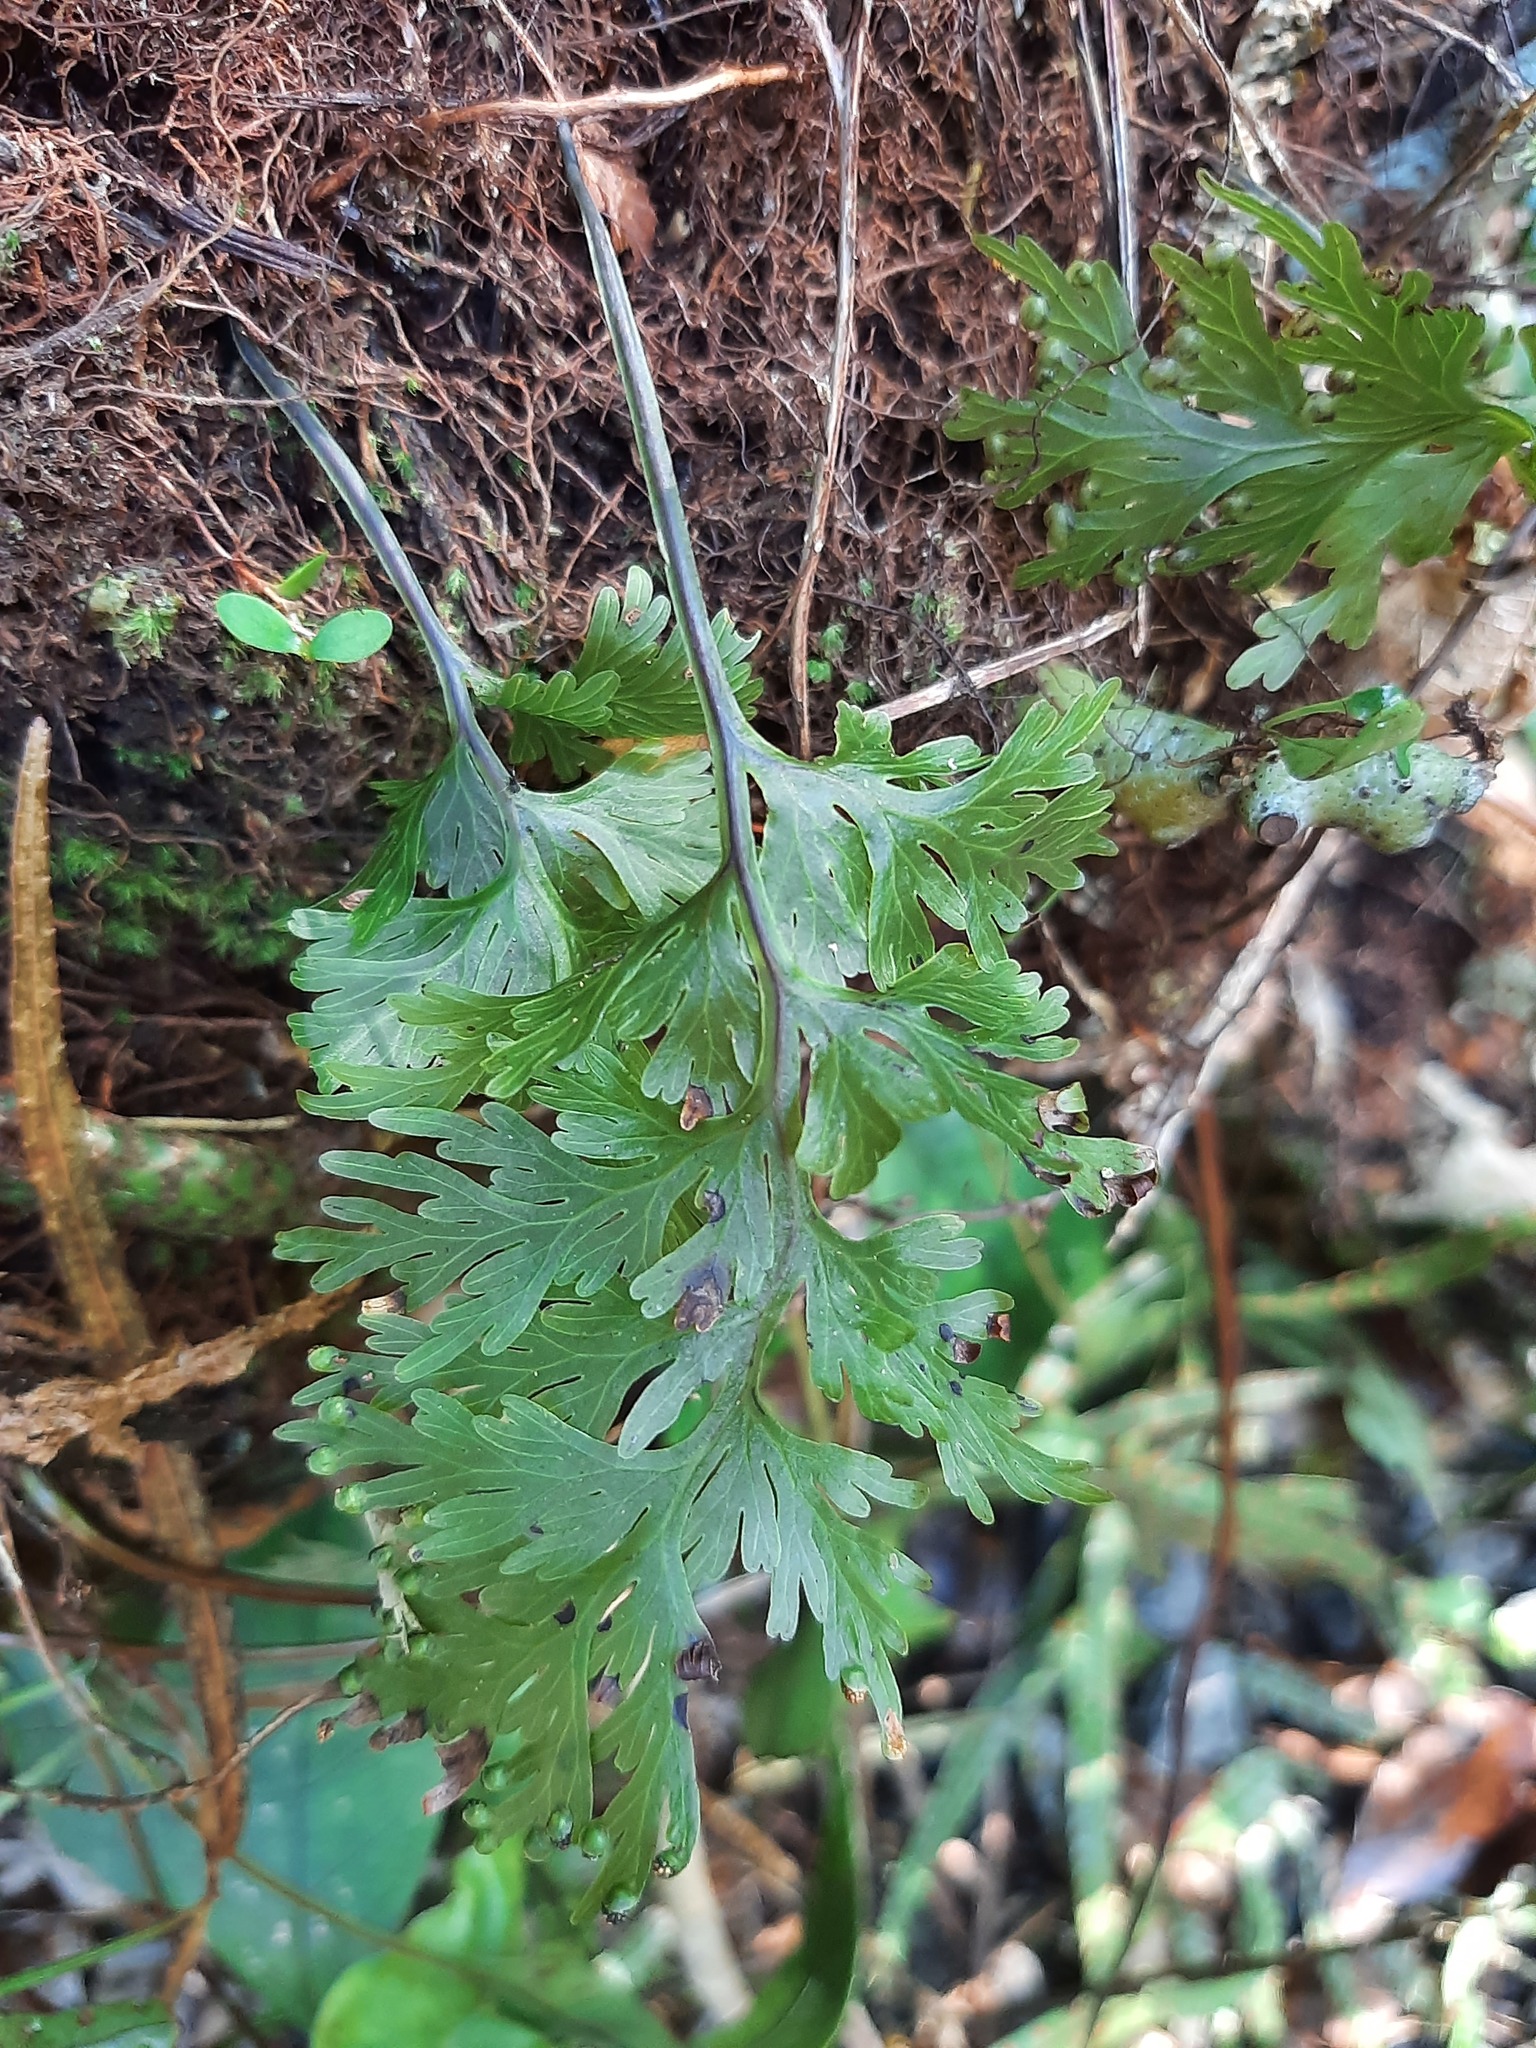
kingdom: Plantae
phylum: Tracheophyta
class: Polypodiopsida
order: Hymenophyllales
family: Hymenophyllaceae
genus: Hymenophyllum
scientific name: Hymenophyllum dilatatum
